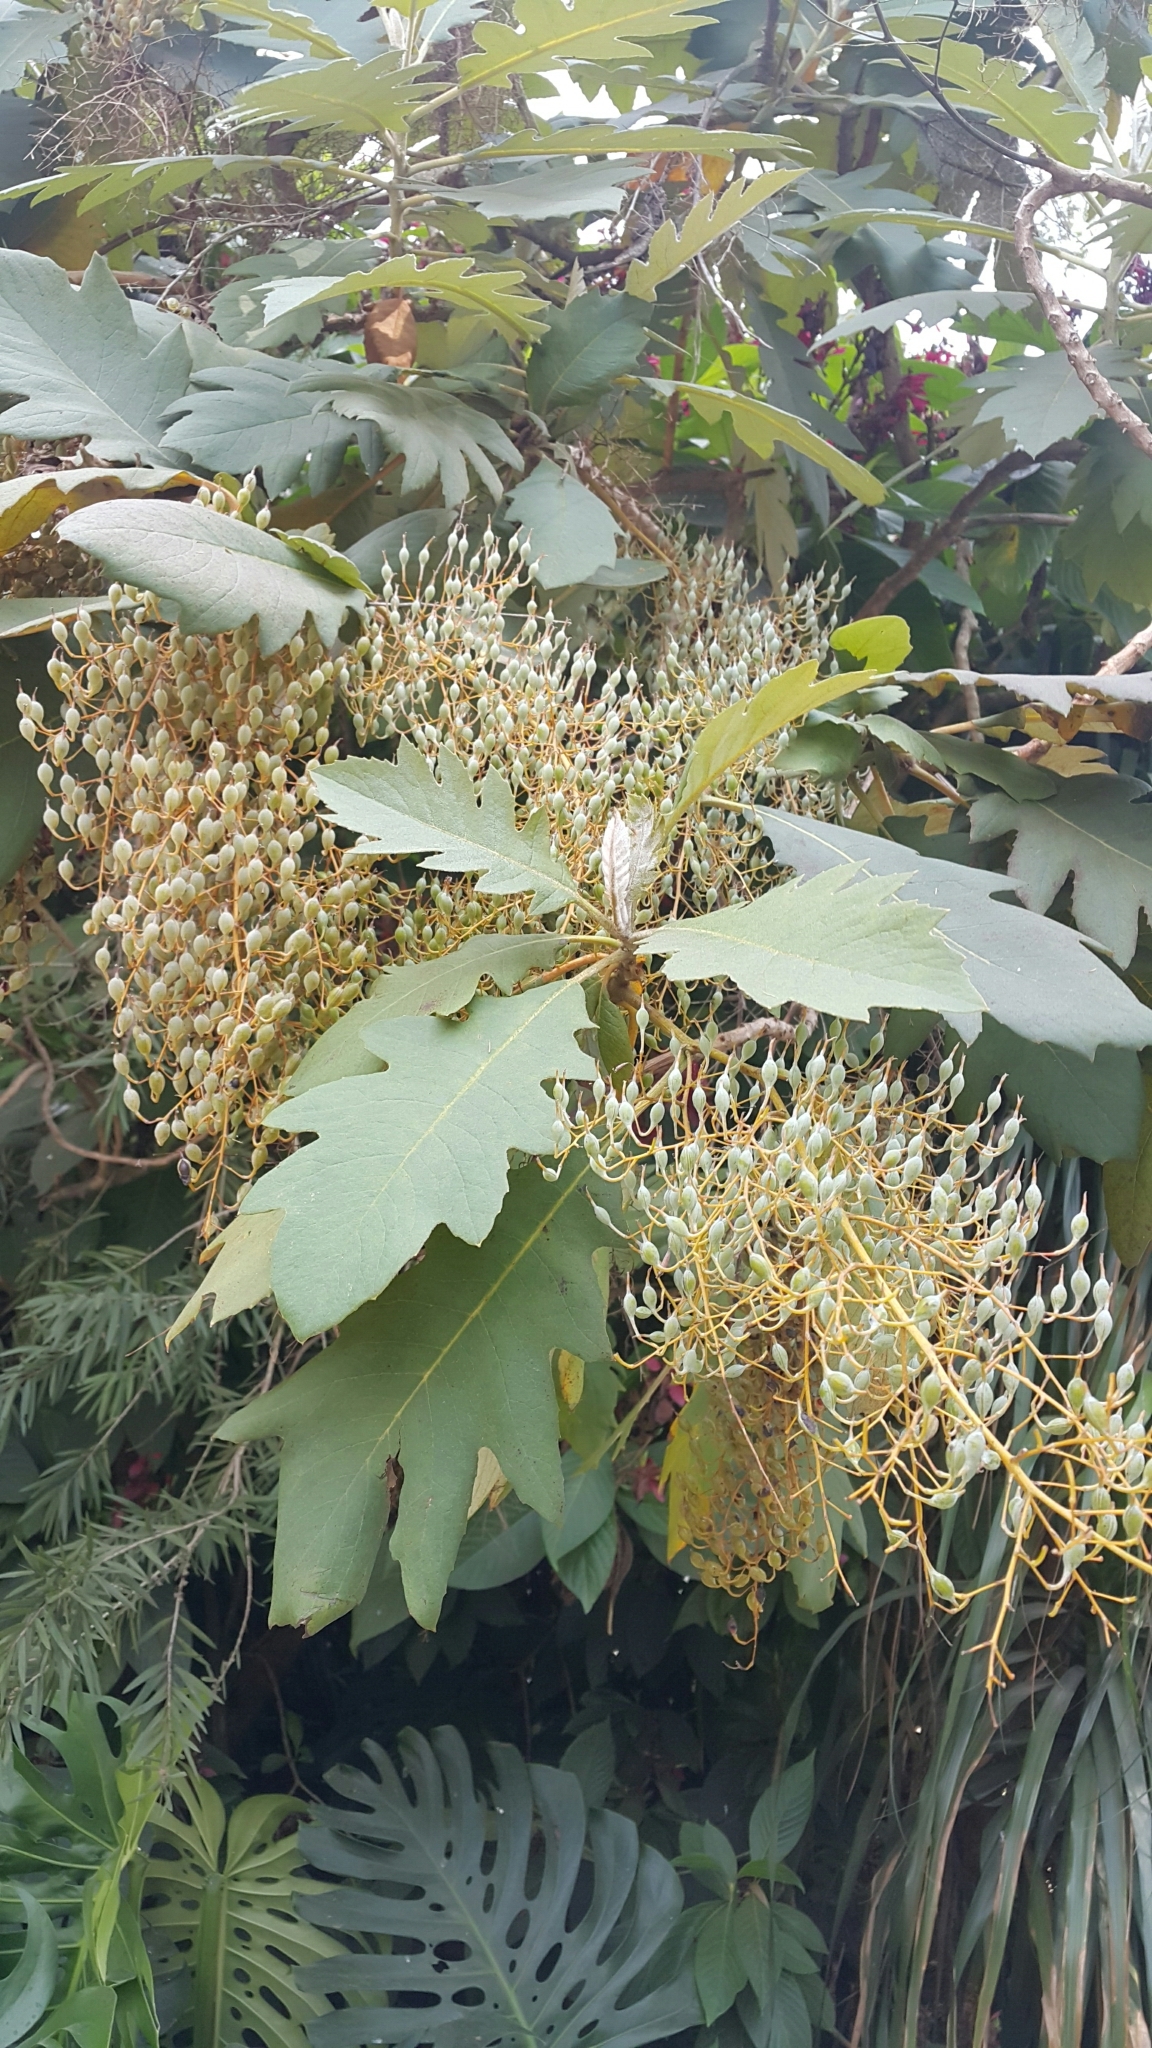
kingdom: Plantae
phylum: Tracheophyta
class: Magnoliopsida
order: Ranunculales
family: Papaveraceae
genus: Bocconia
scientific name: Bocconia arborea
